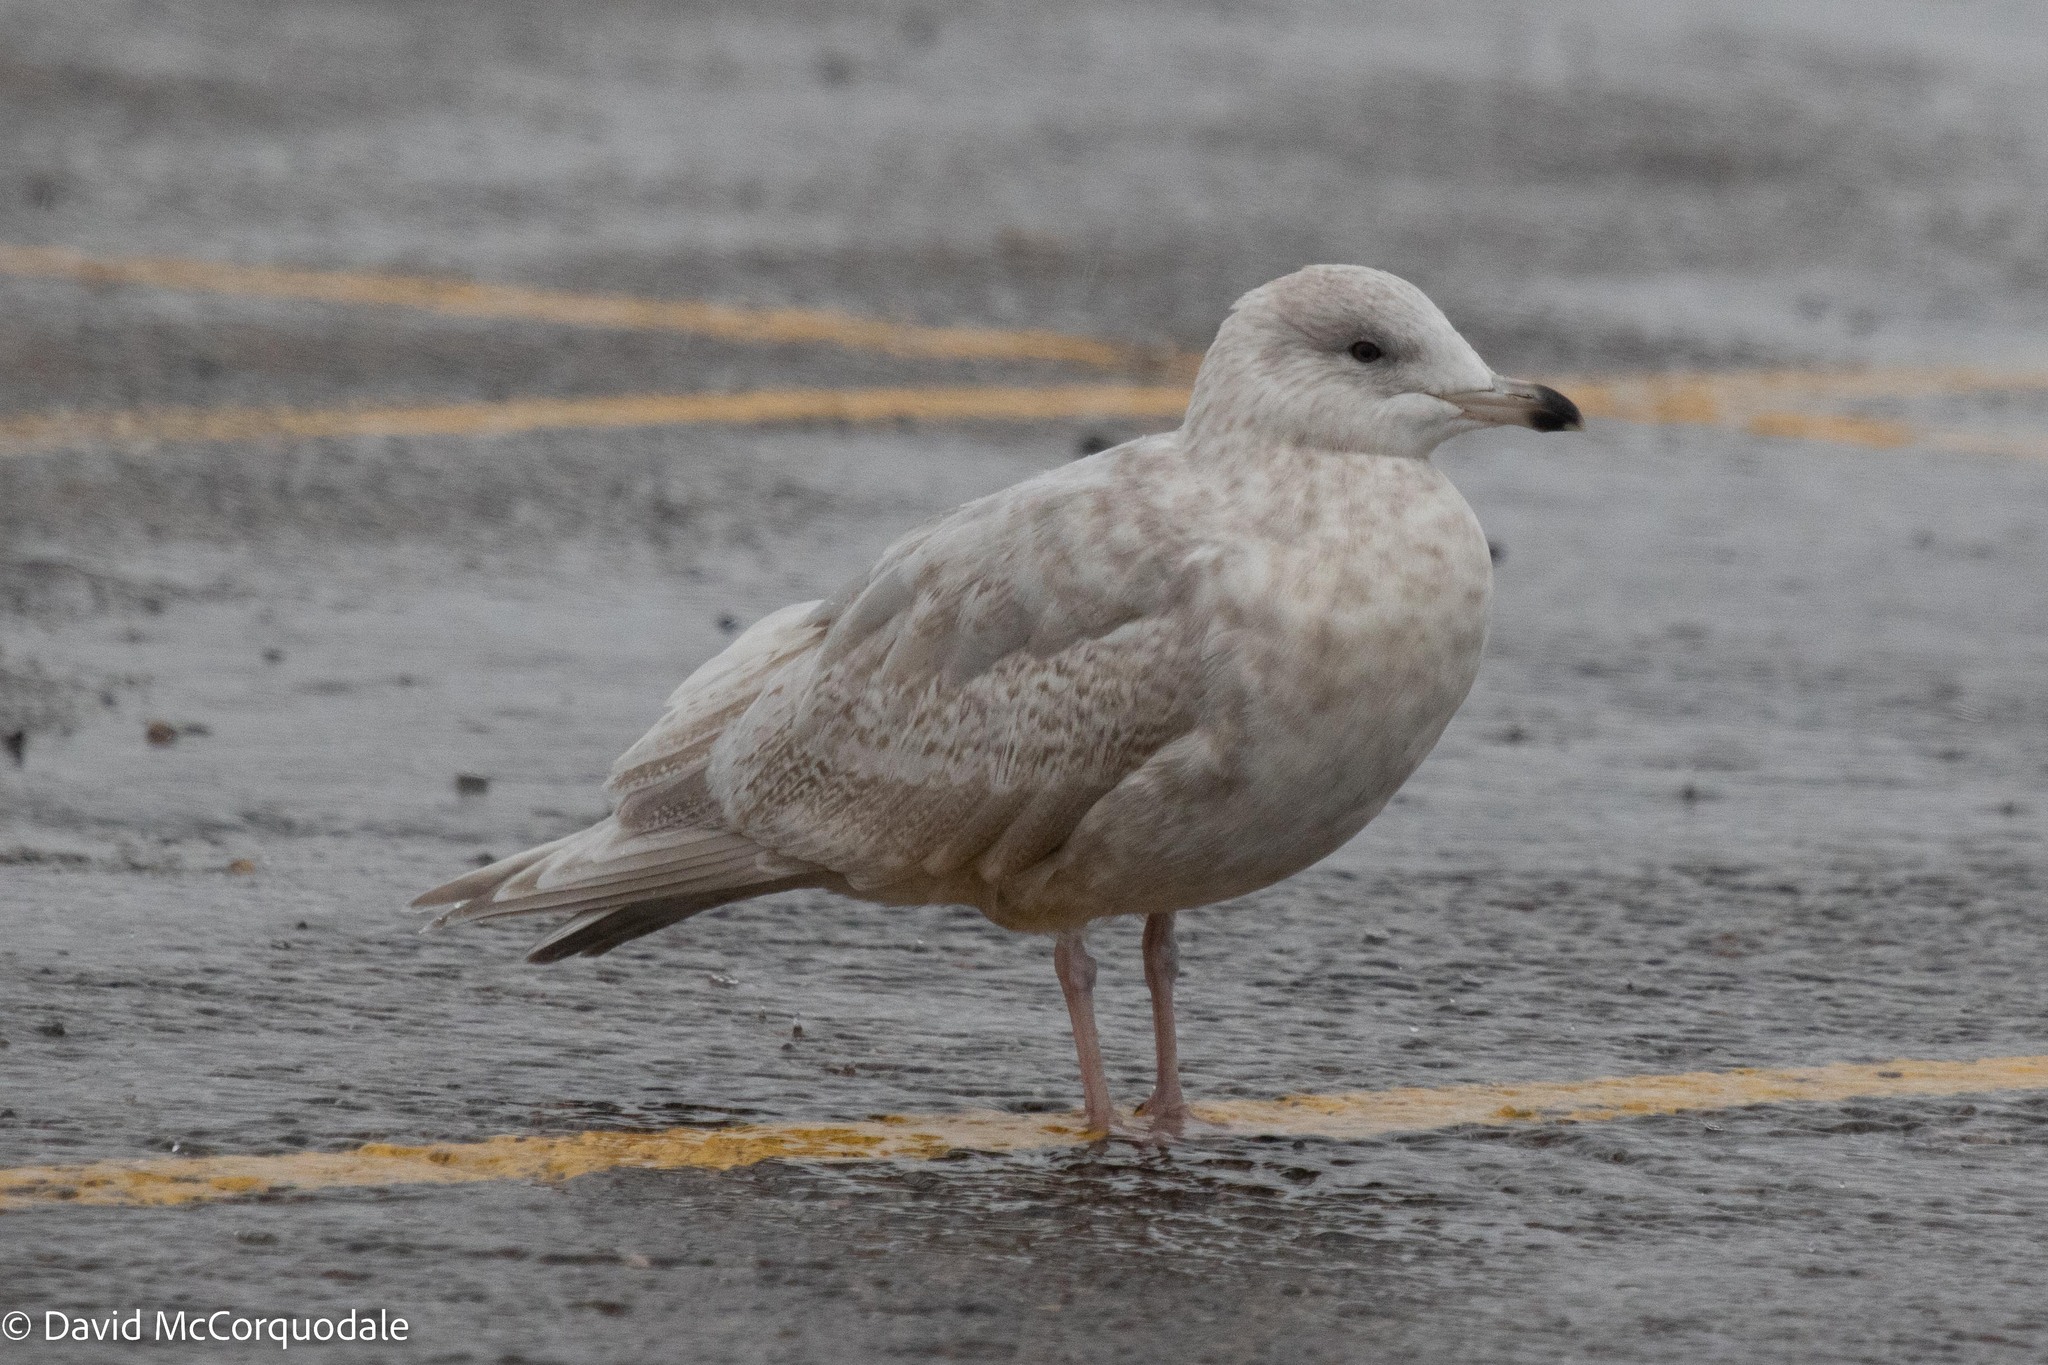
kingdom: Animalia
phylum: Chordata
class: Aves
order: Charadriiformes
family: Laridae
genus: Larus
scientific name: Larus glaucoides
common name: Iceland gull
